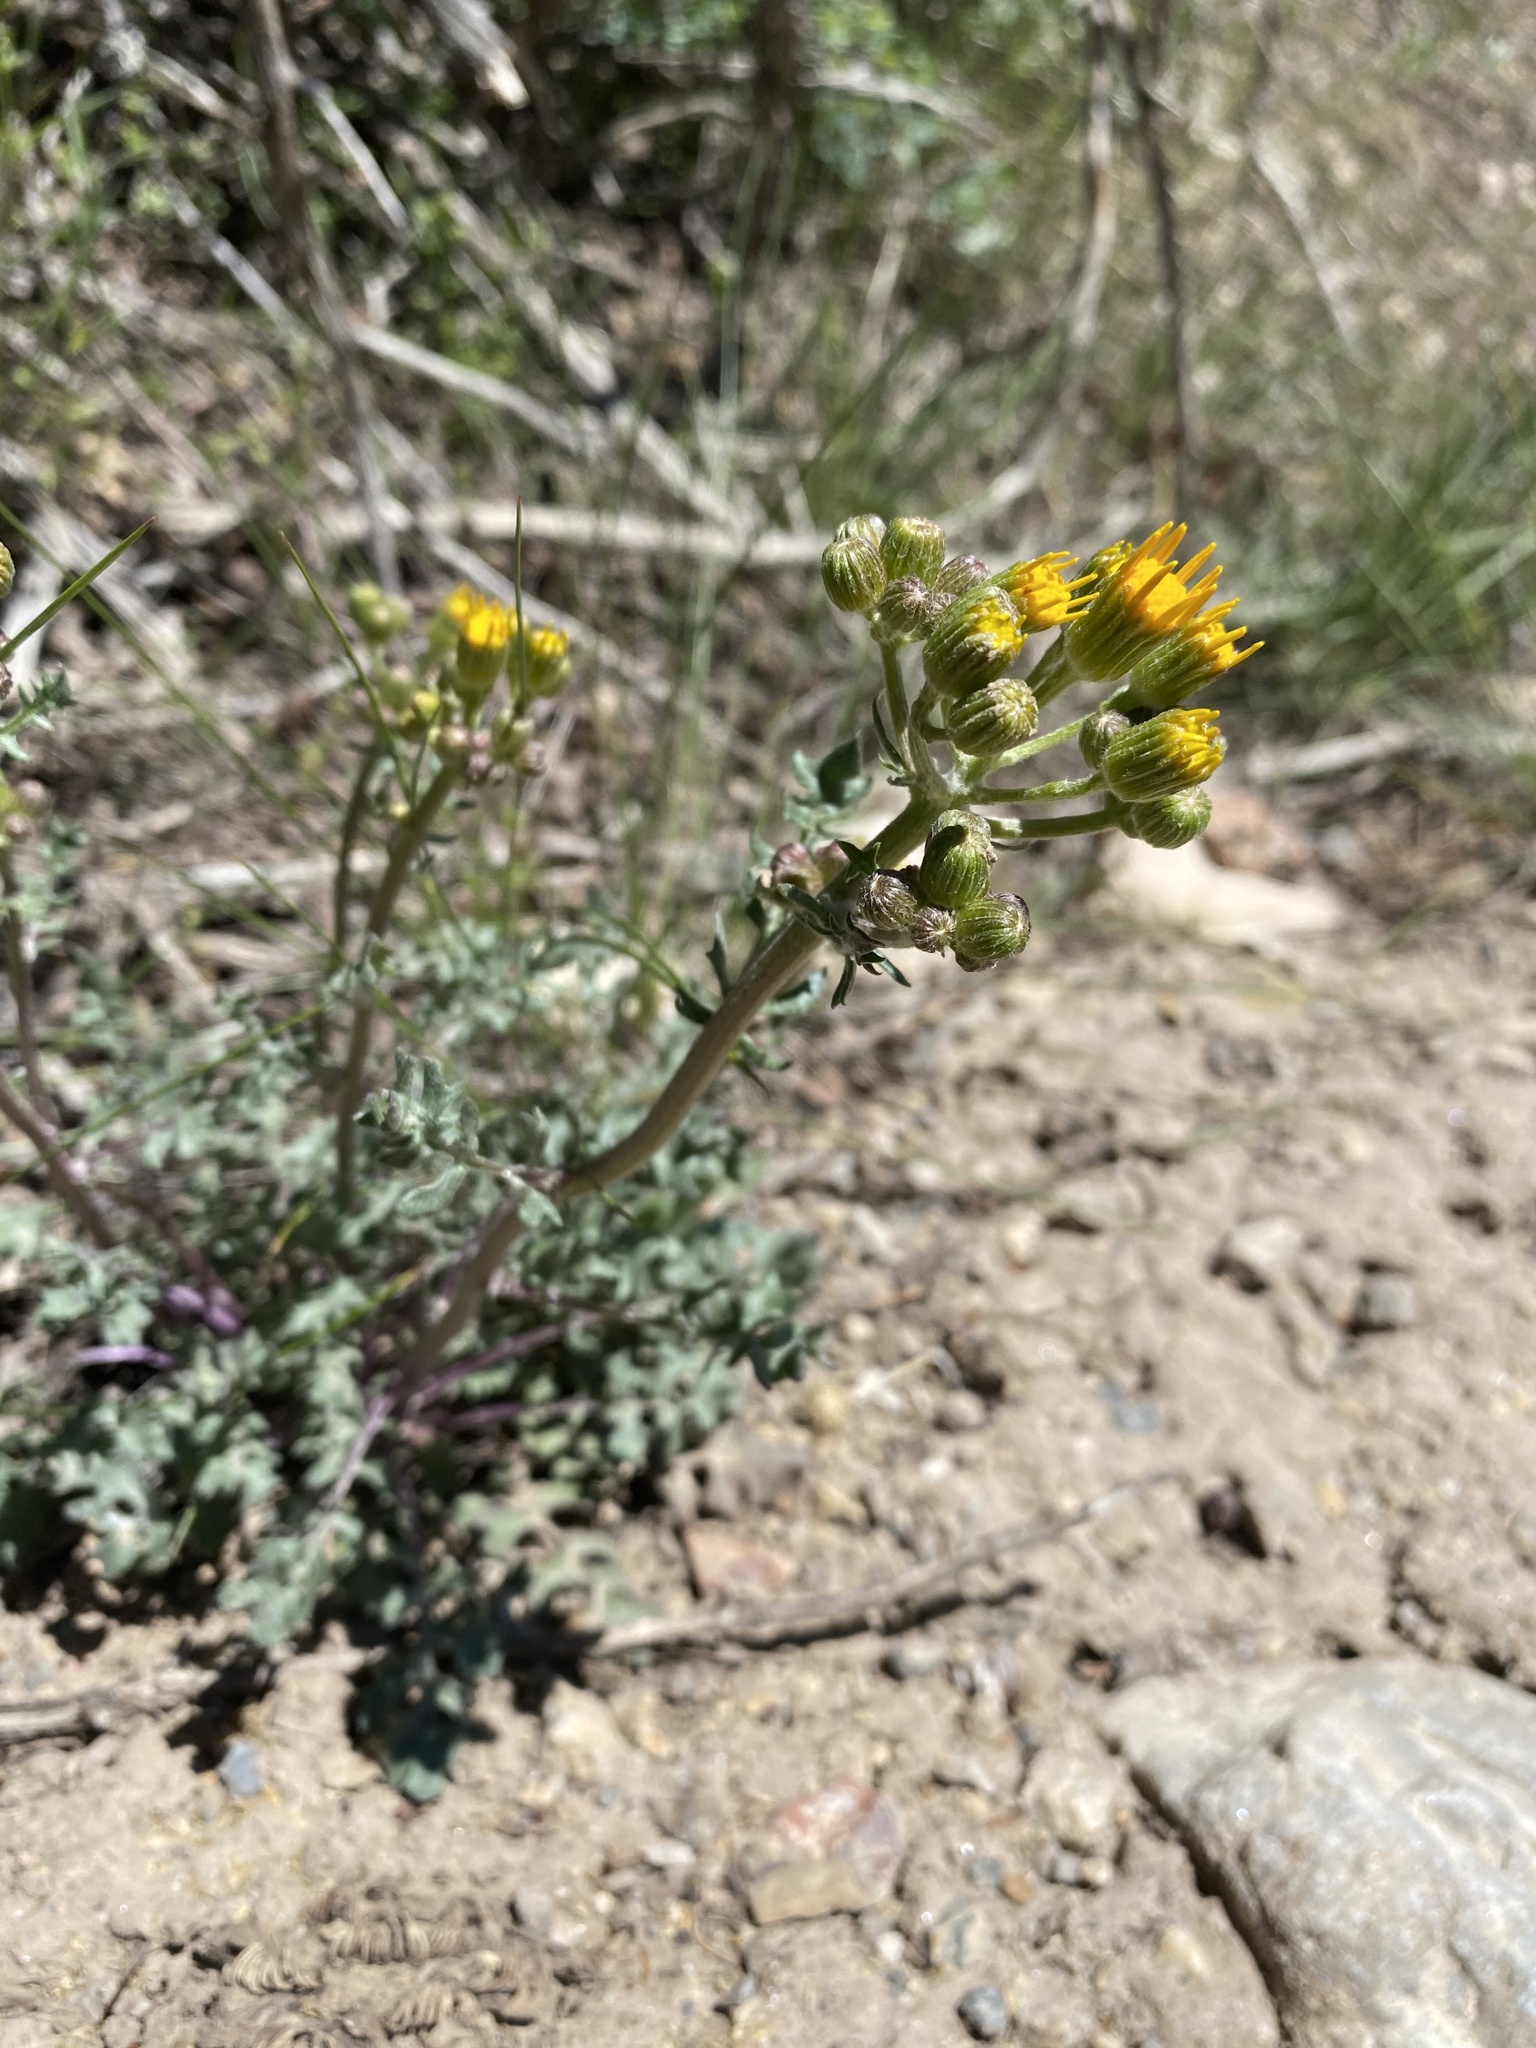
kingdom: Plantae
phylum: Tracheophyta
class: Magnoliopsida
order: Asterales
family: Asteraceae
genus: Packera
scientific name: Packera multilobata
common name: Lobe-leaf groundsel
